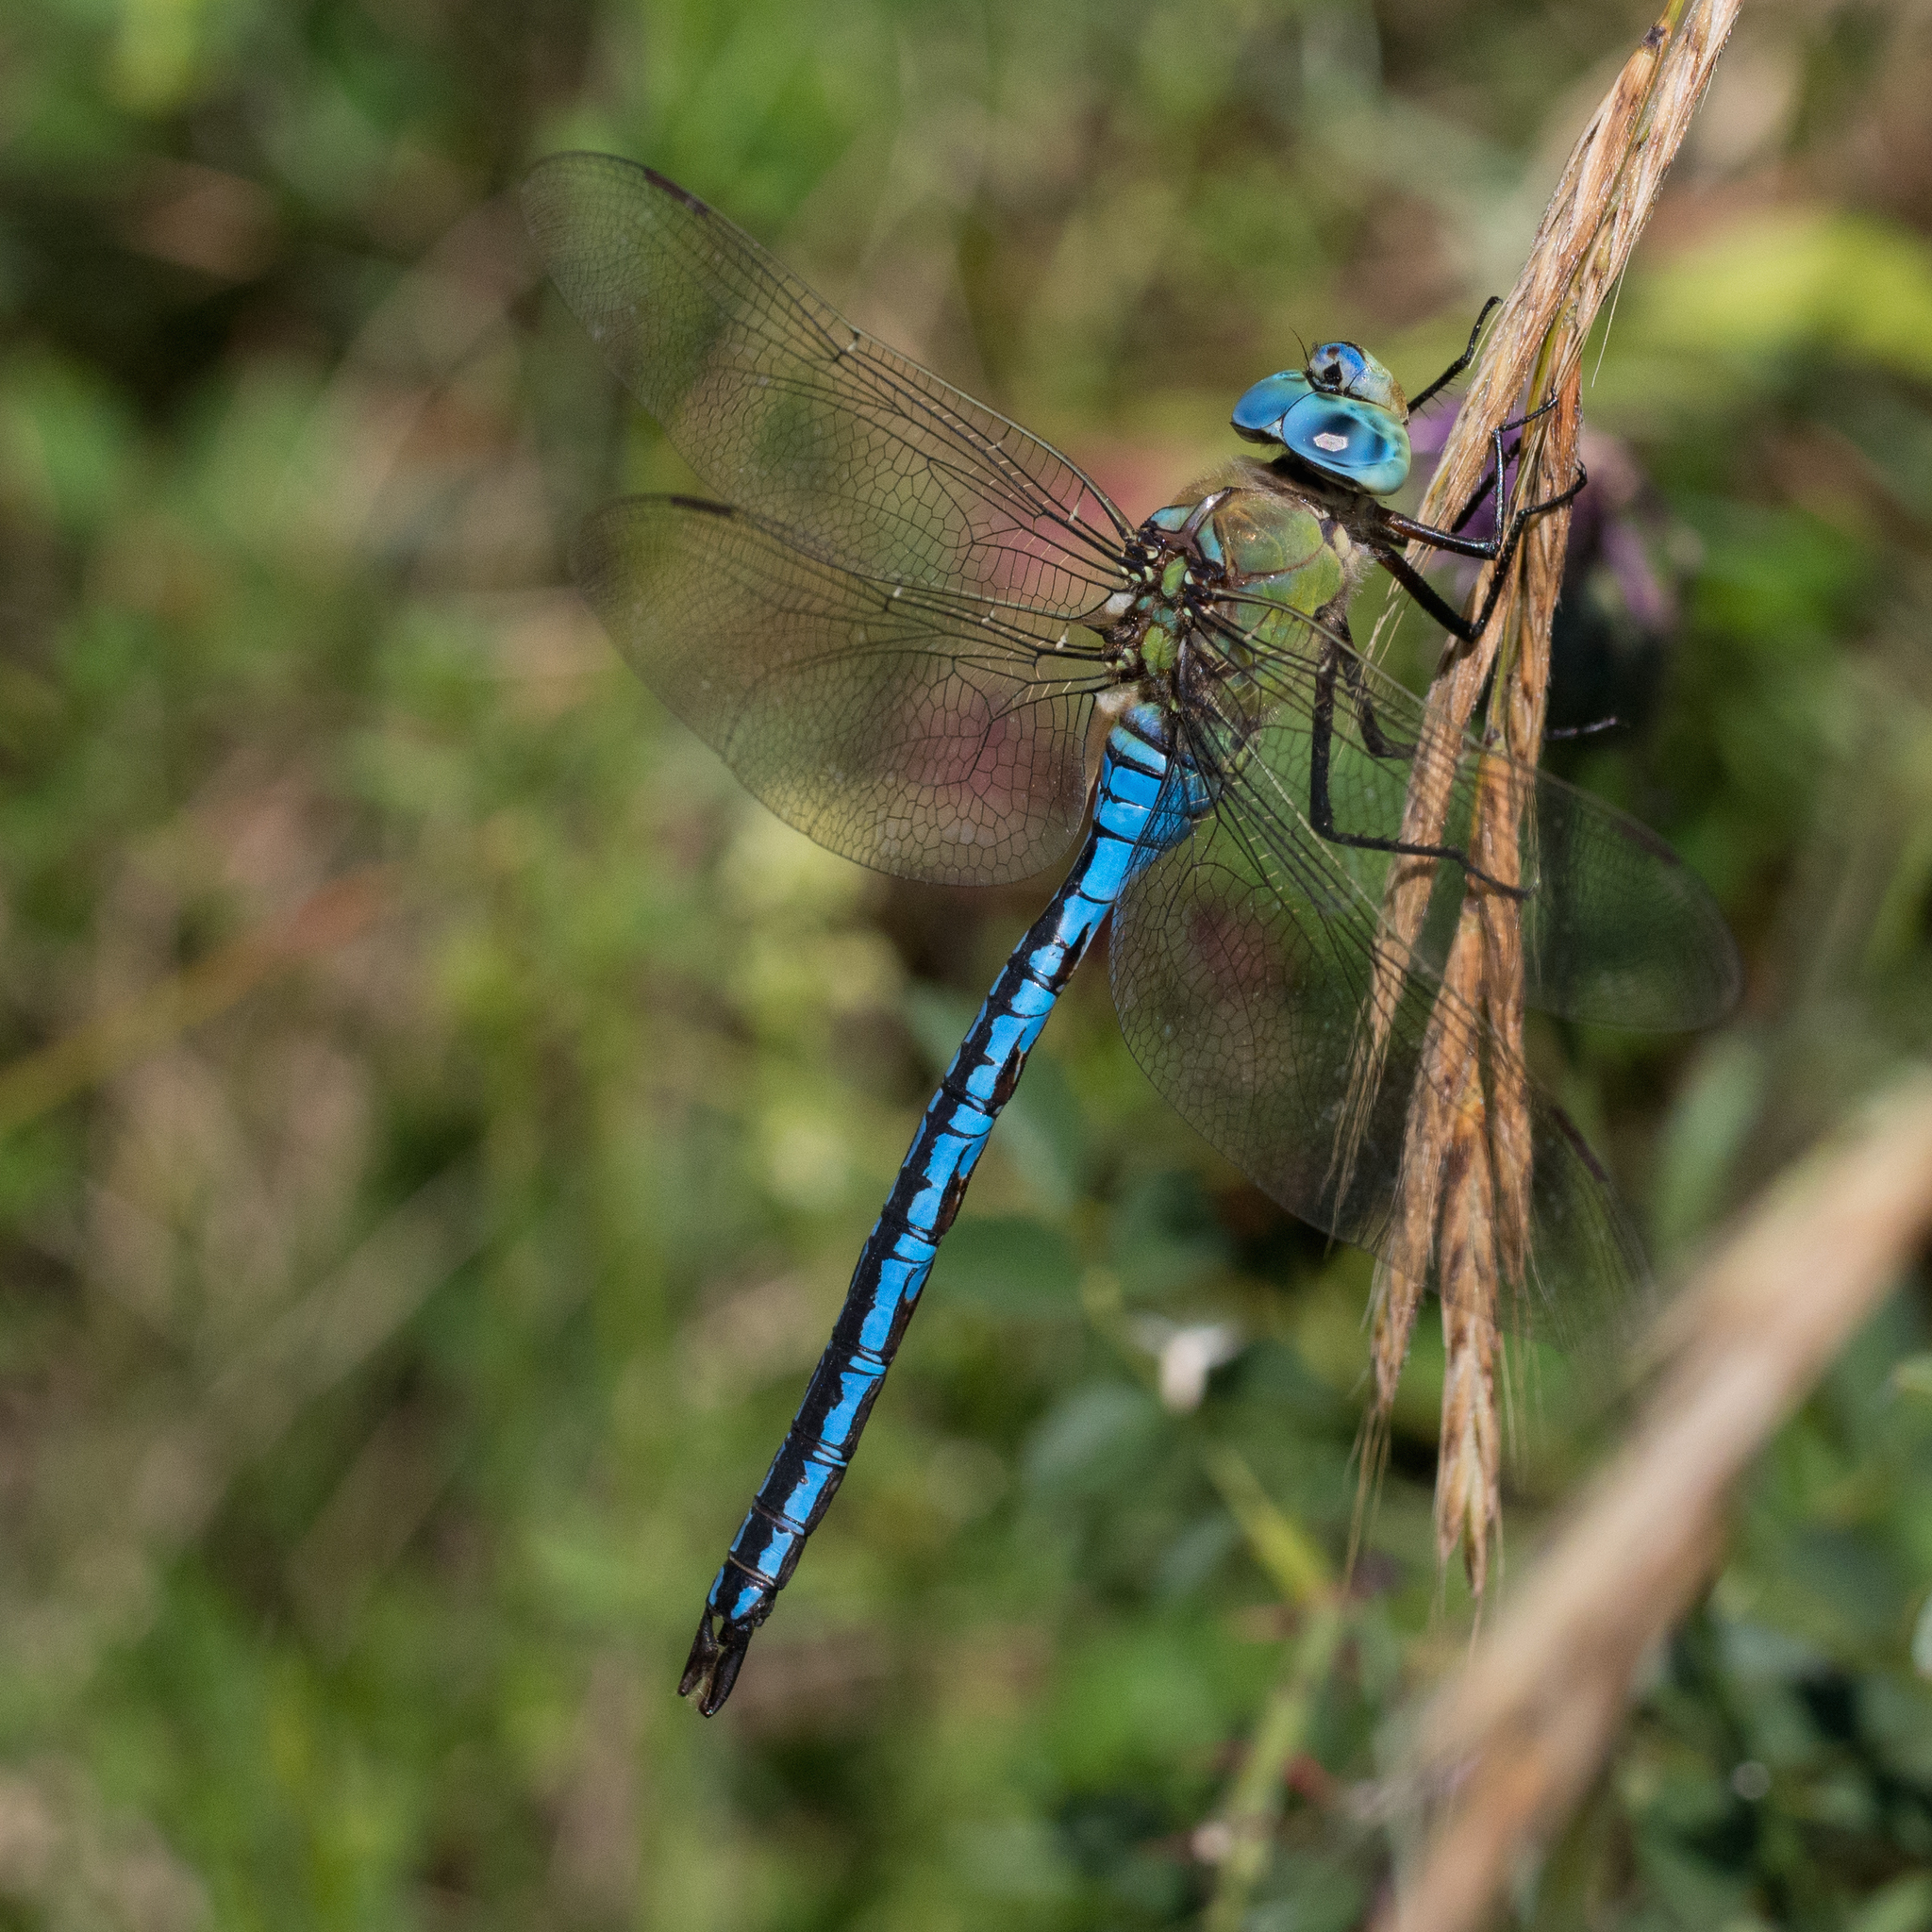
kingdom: Animalia
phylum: Arthropoda
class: Insecta
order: Odonata
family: Aeshnidae
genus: Anax
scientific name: Anax imperator
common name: Emperor dragonfly
